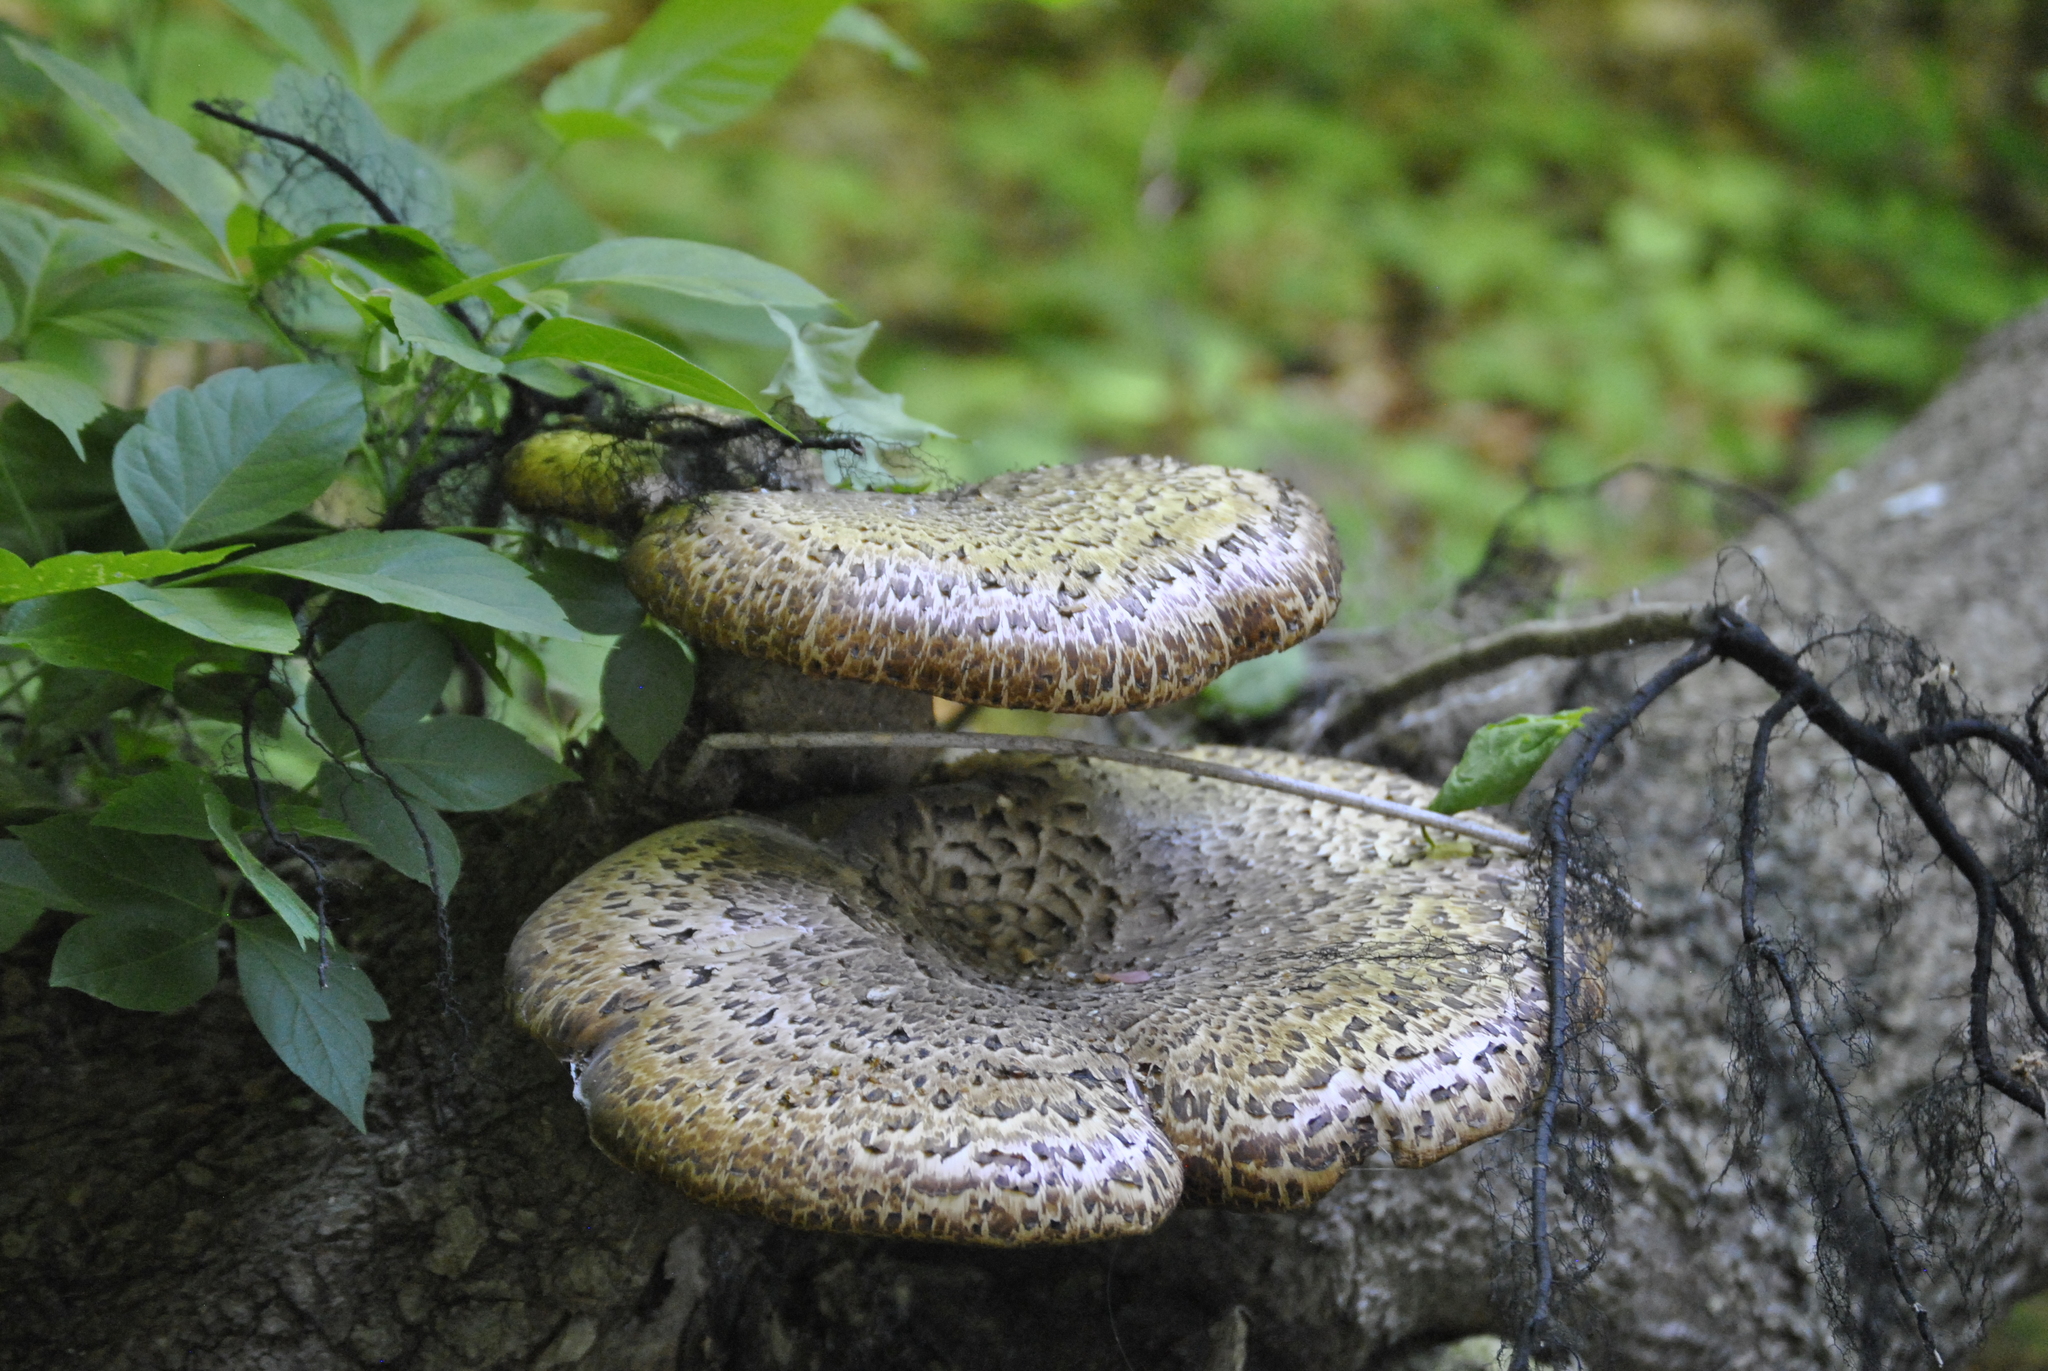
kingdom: Fungi
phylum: Basidiomycota
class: Agaricomycetes
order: Polyporales
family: Polyporaceae
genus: Cerioporus
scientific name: Cerioporus squamosus
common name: Dryad's saddle
